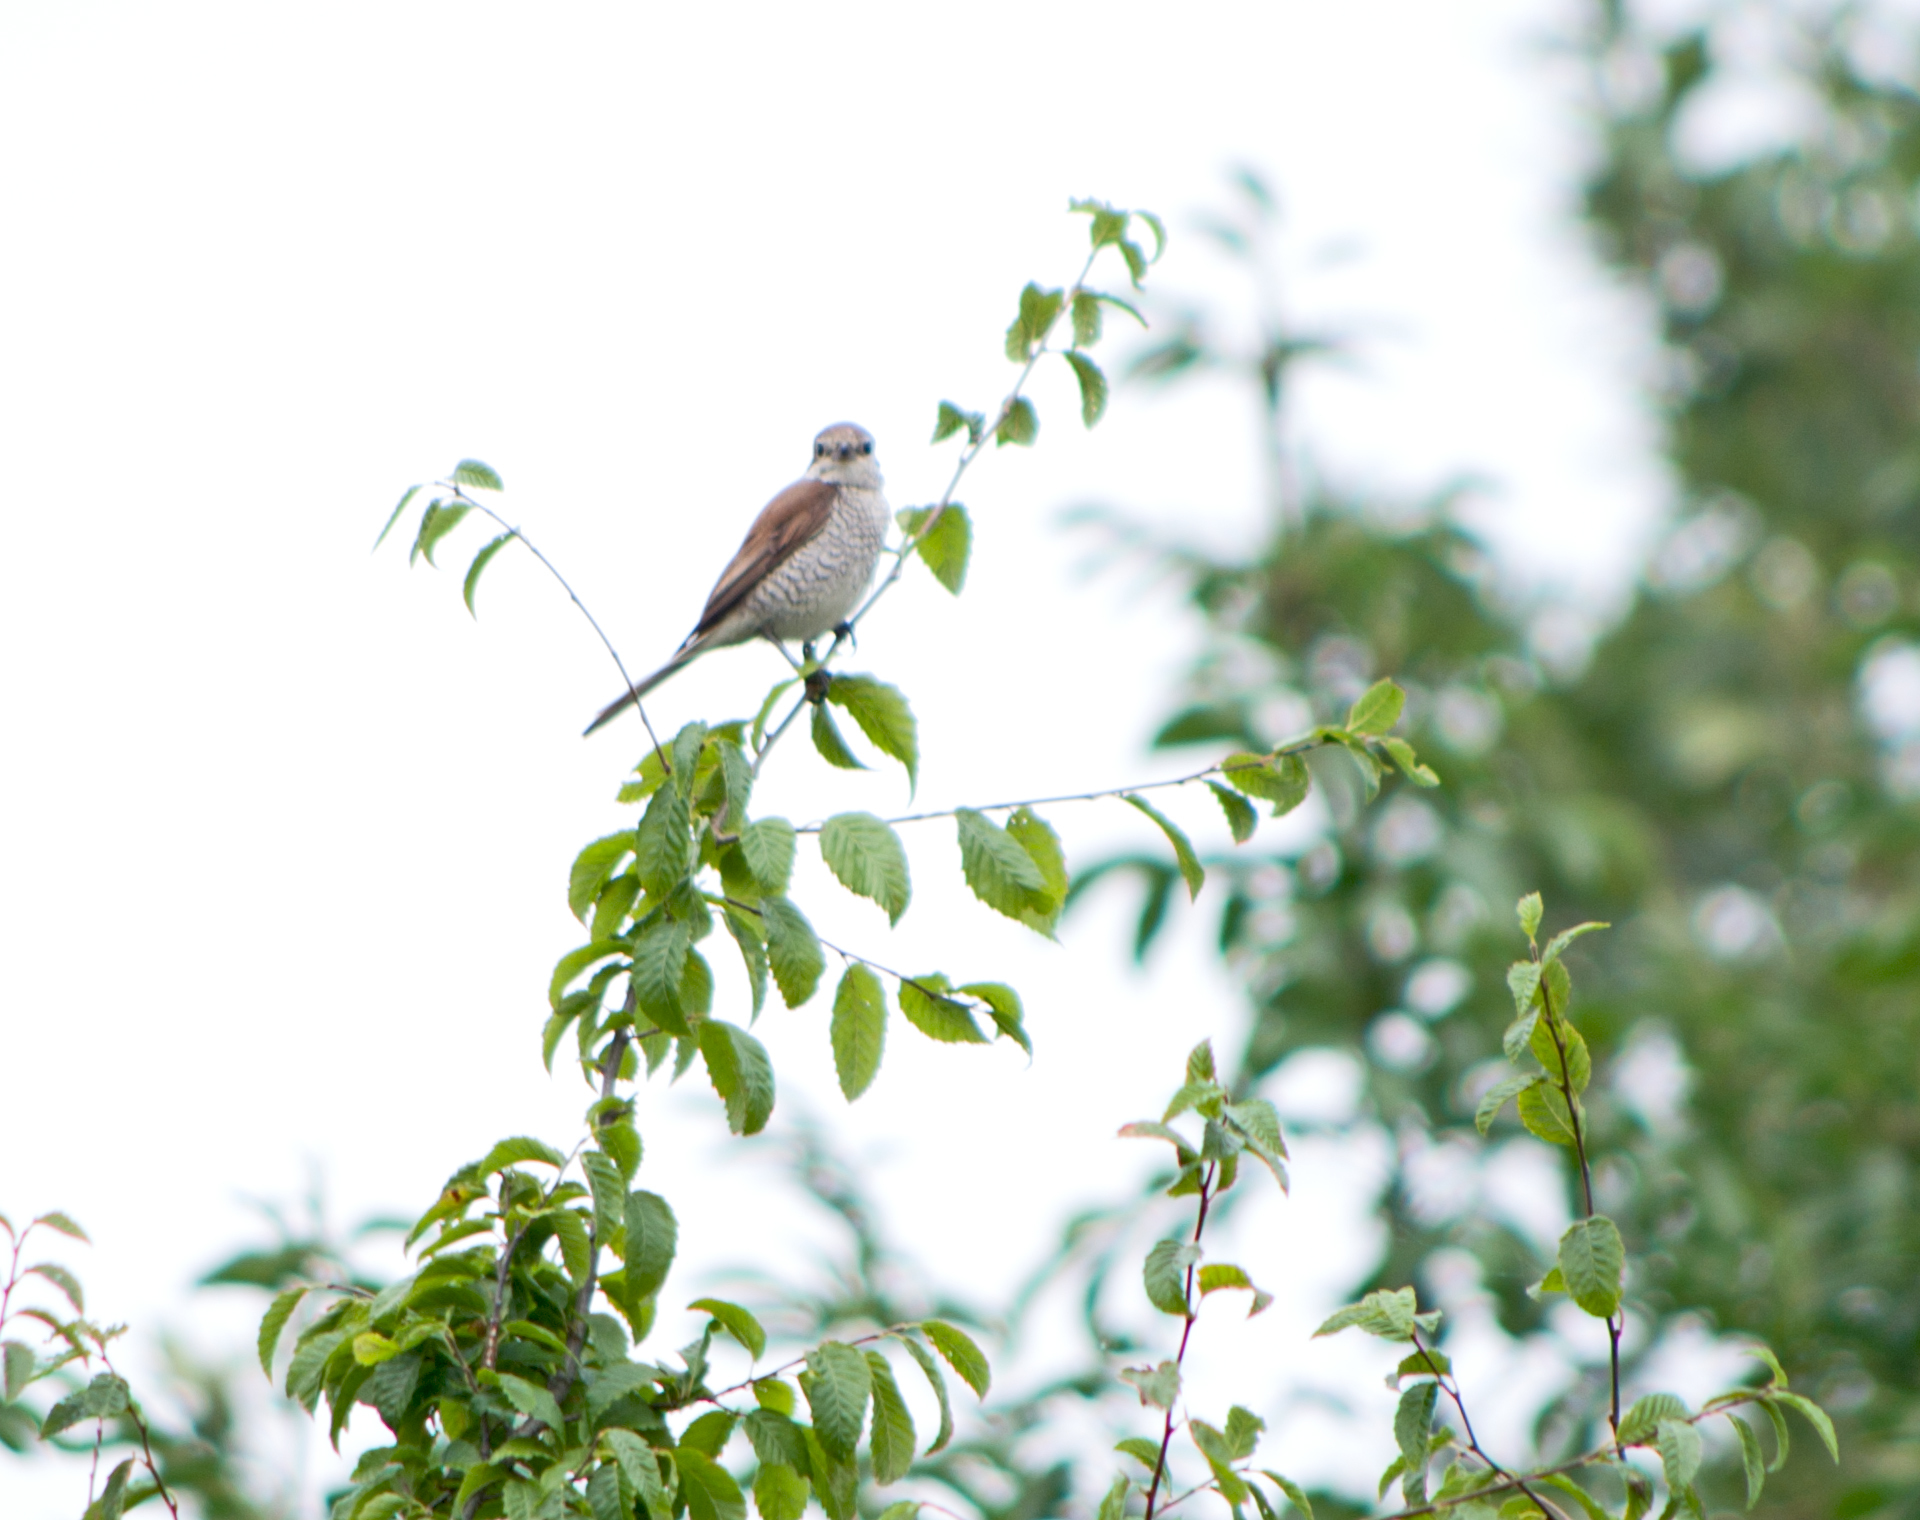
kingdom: Animalia
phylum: Chordata
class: Aves
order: Passeriformes
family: Laniidae
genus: Lanius
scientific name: Lanius collurio
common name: Red-backed shrike
